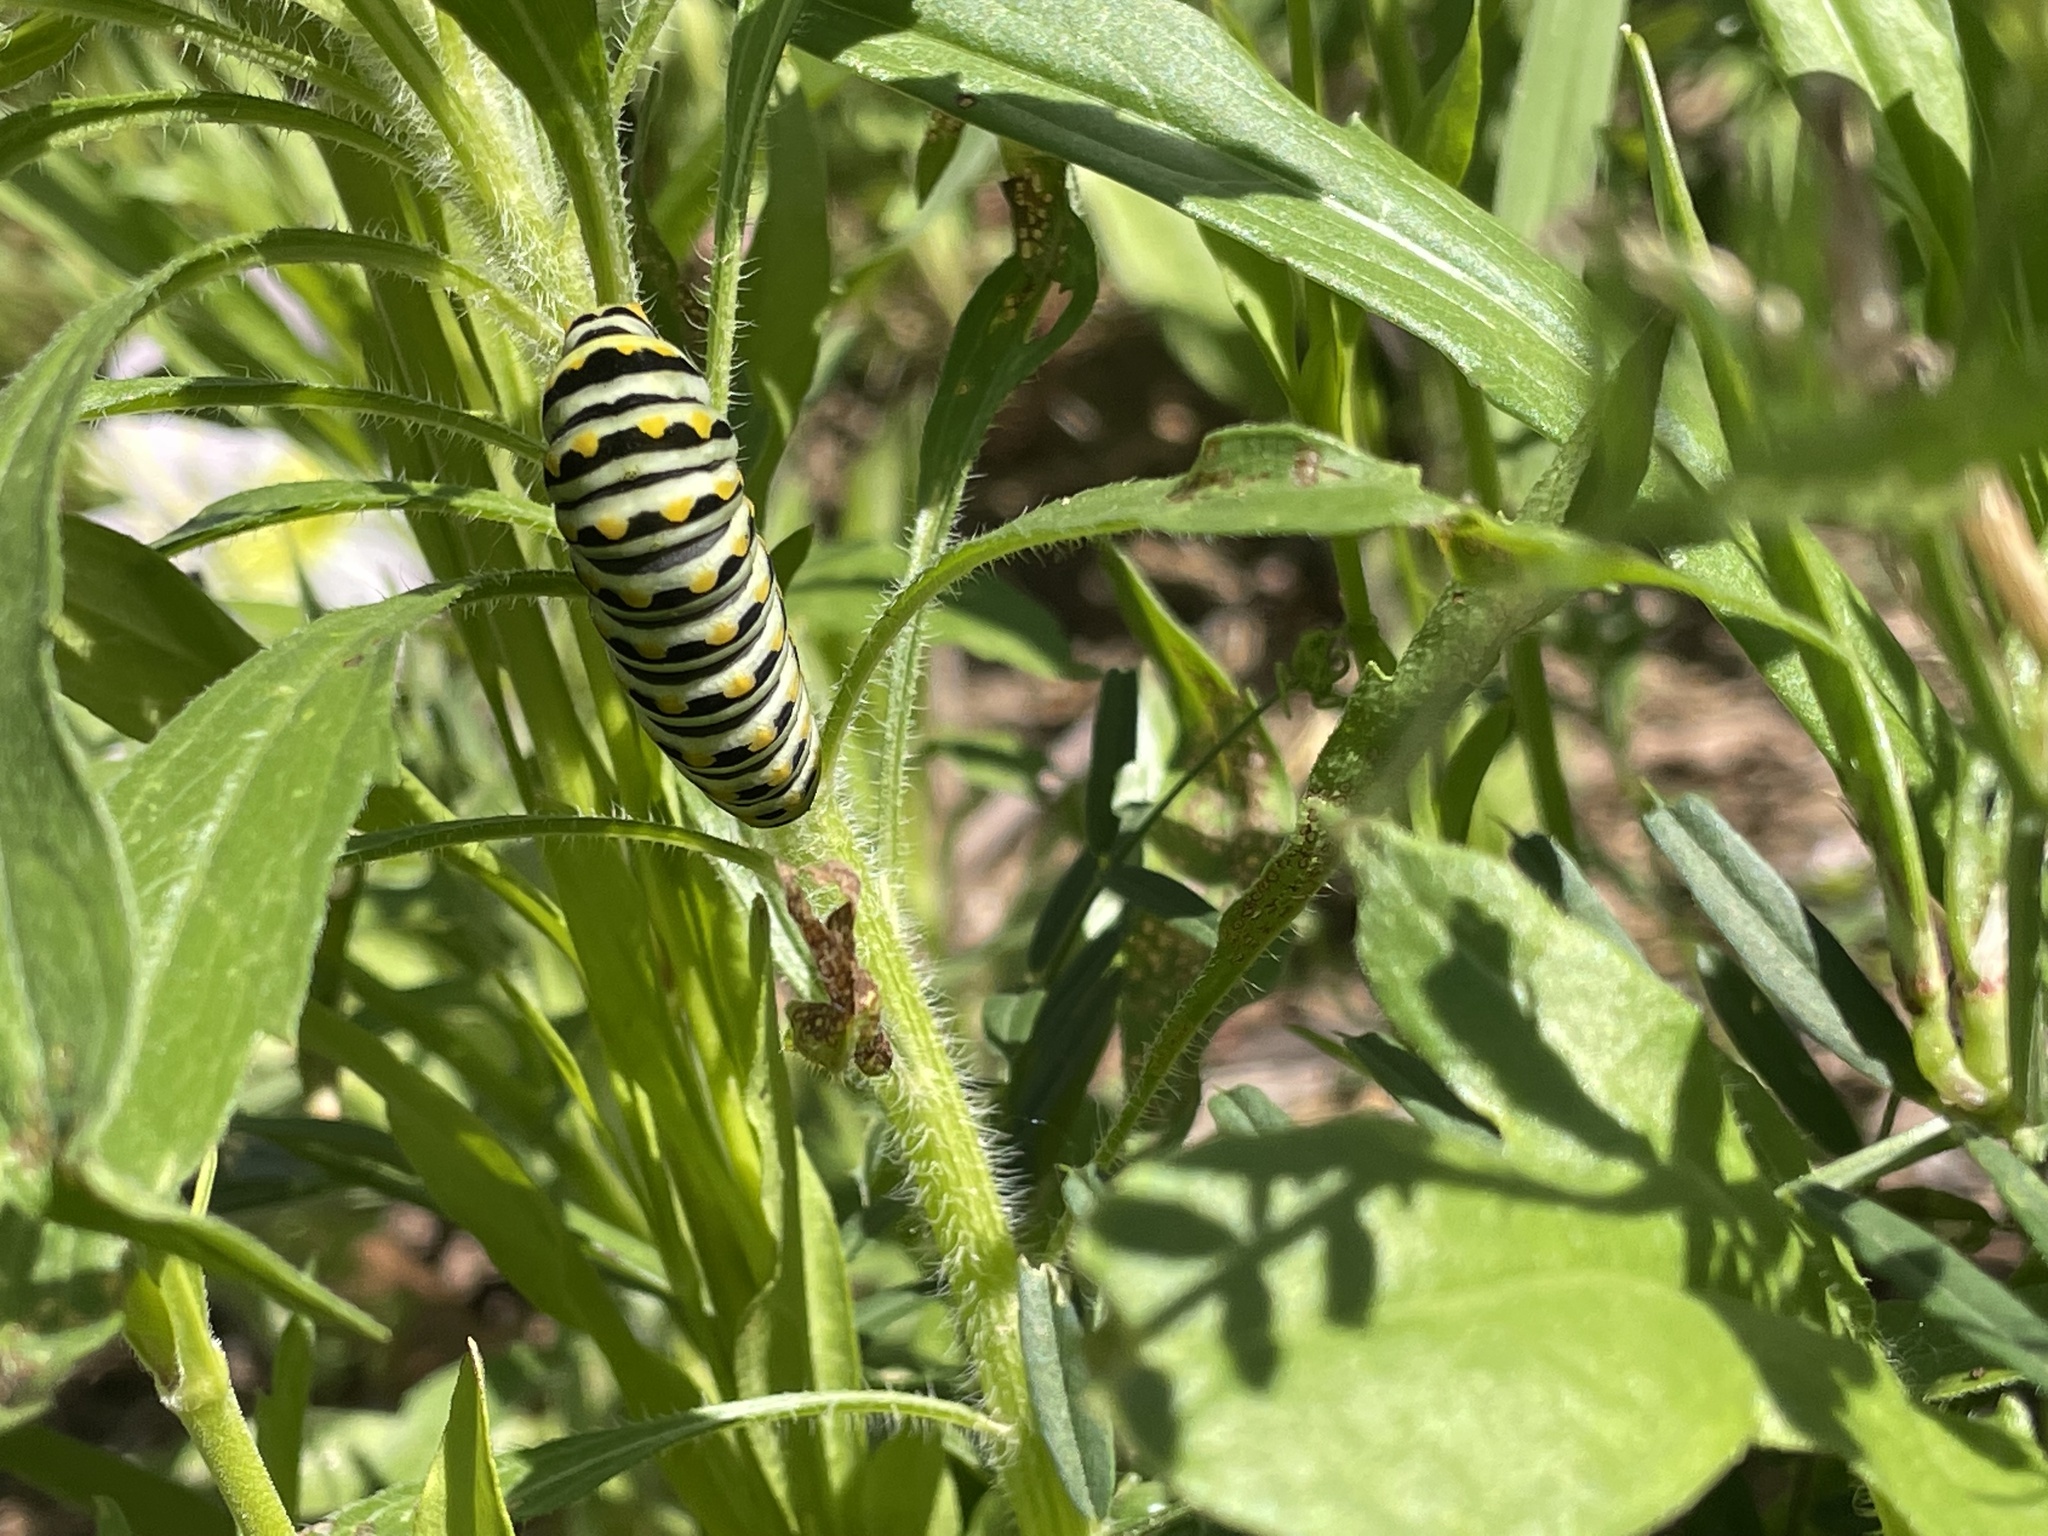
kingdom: Animalia
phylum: Arthropoda
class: Insecta
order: Lepidoptera
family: Papilionidae
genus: Papilio
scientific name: Papilio polyxenes
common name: Black swallowtail
